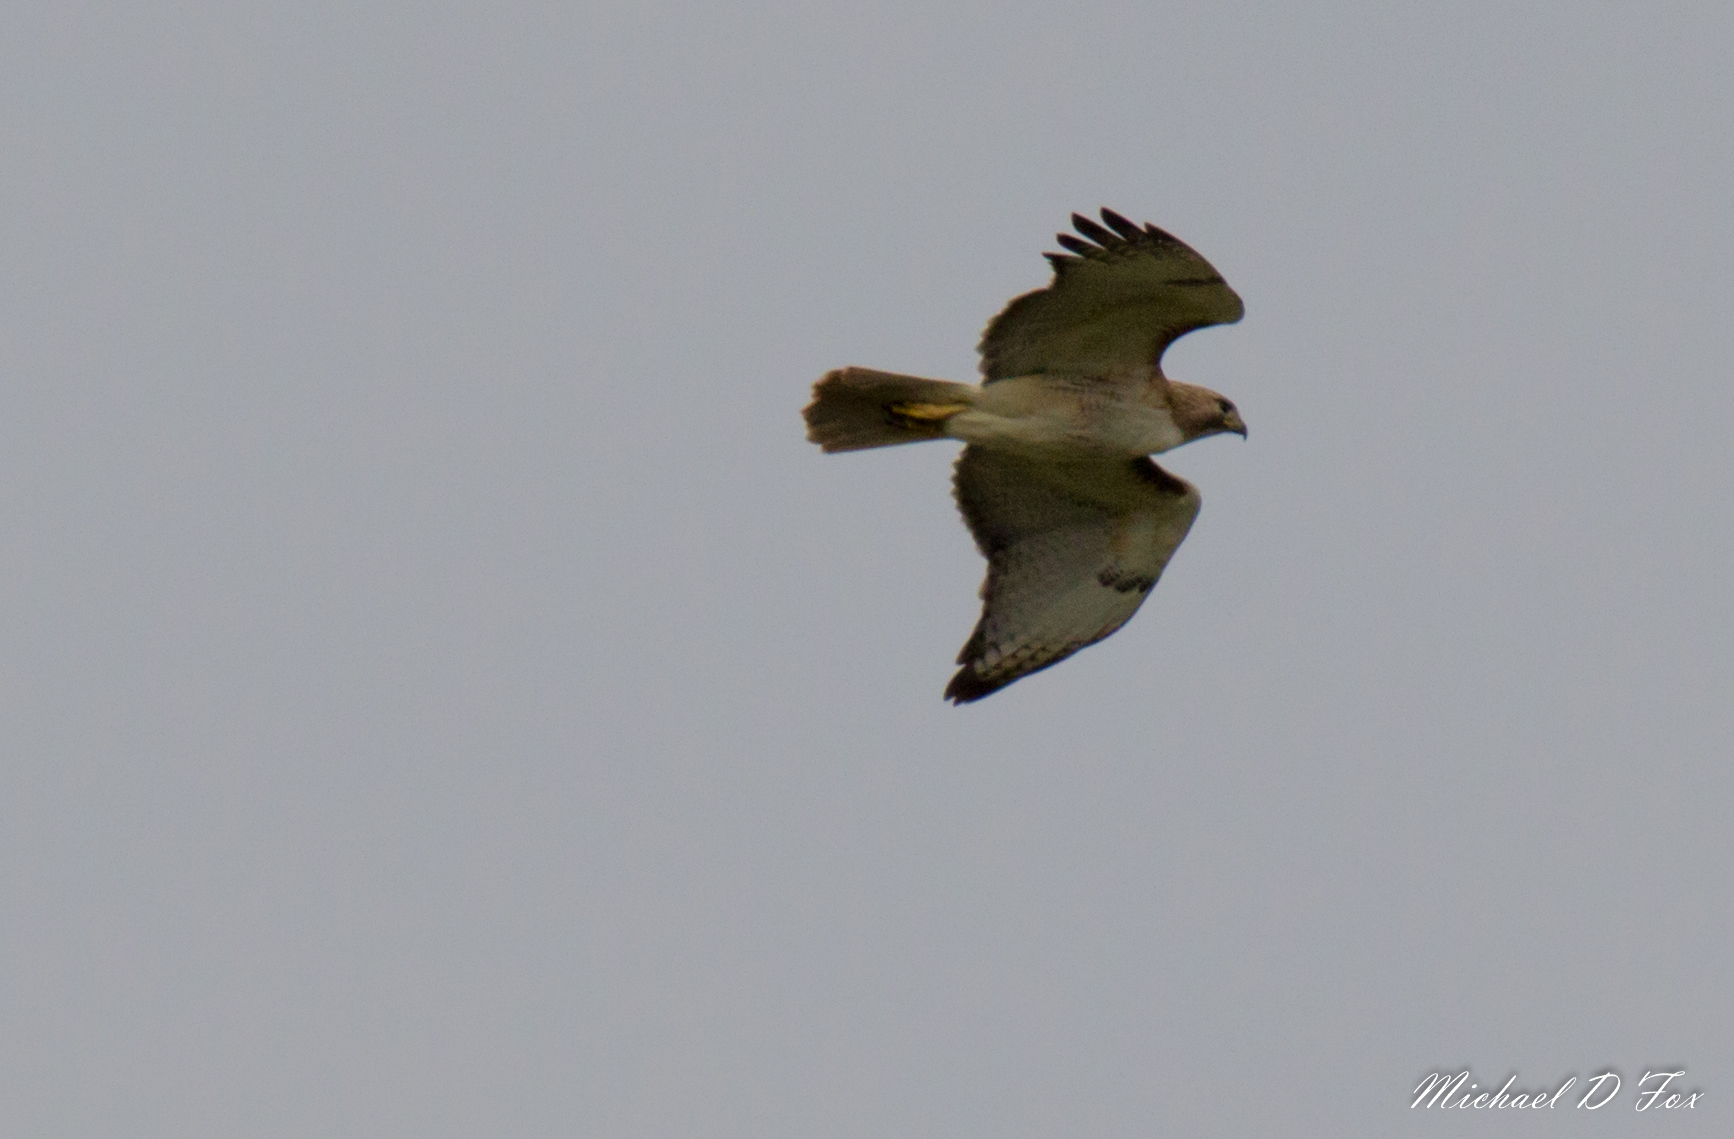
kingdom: Animalia
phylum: Chordata
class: Aves
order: Accipitriformes
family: Accipitridae
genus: Buteo
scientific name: Buteo jamaicensis
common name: Red-tailed hawk
